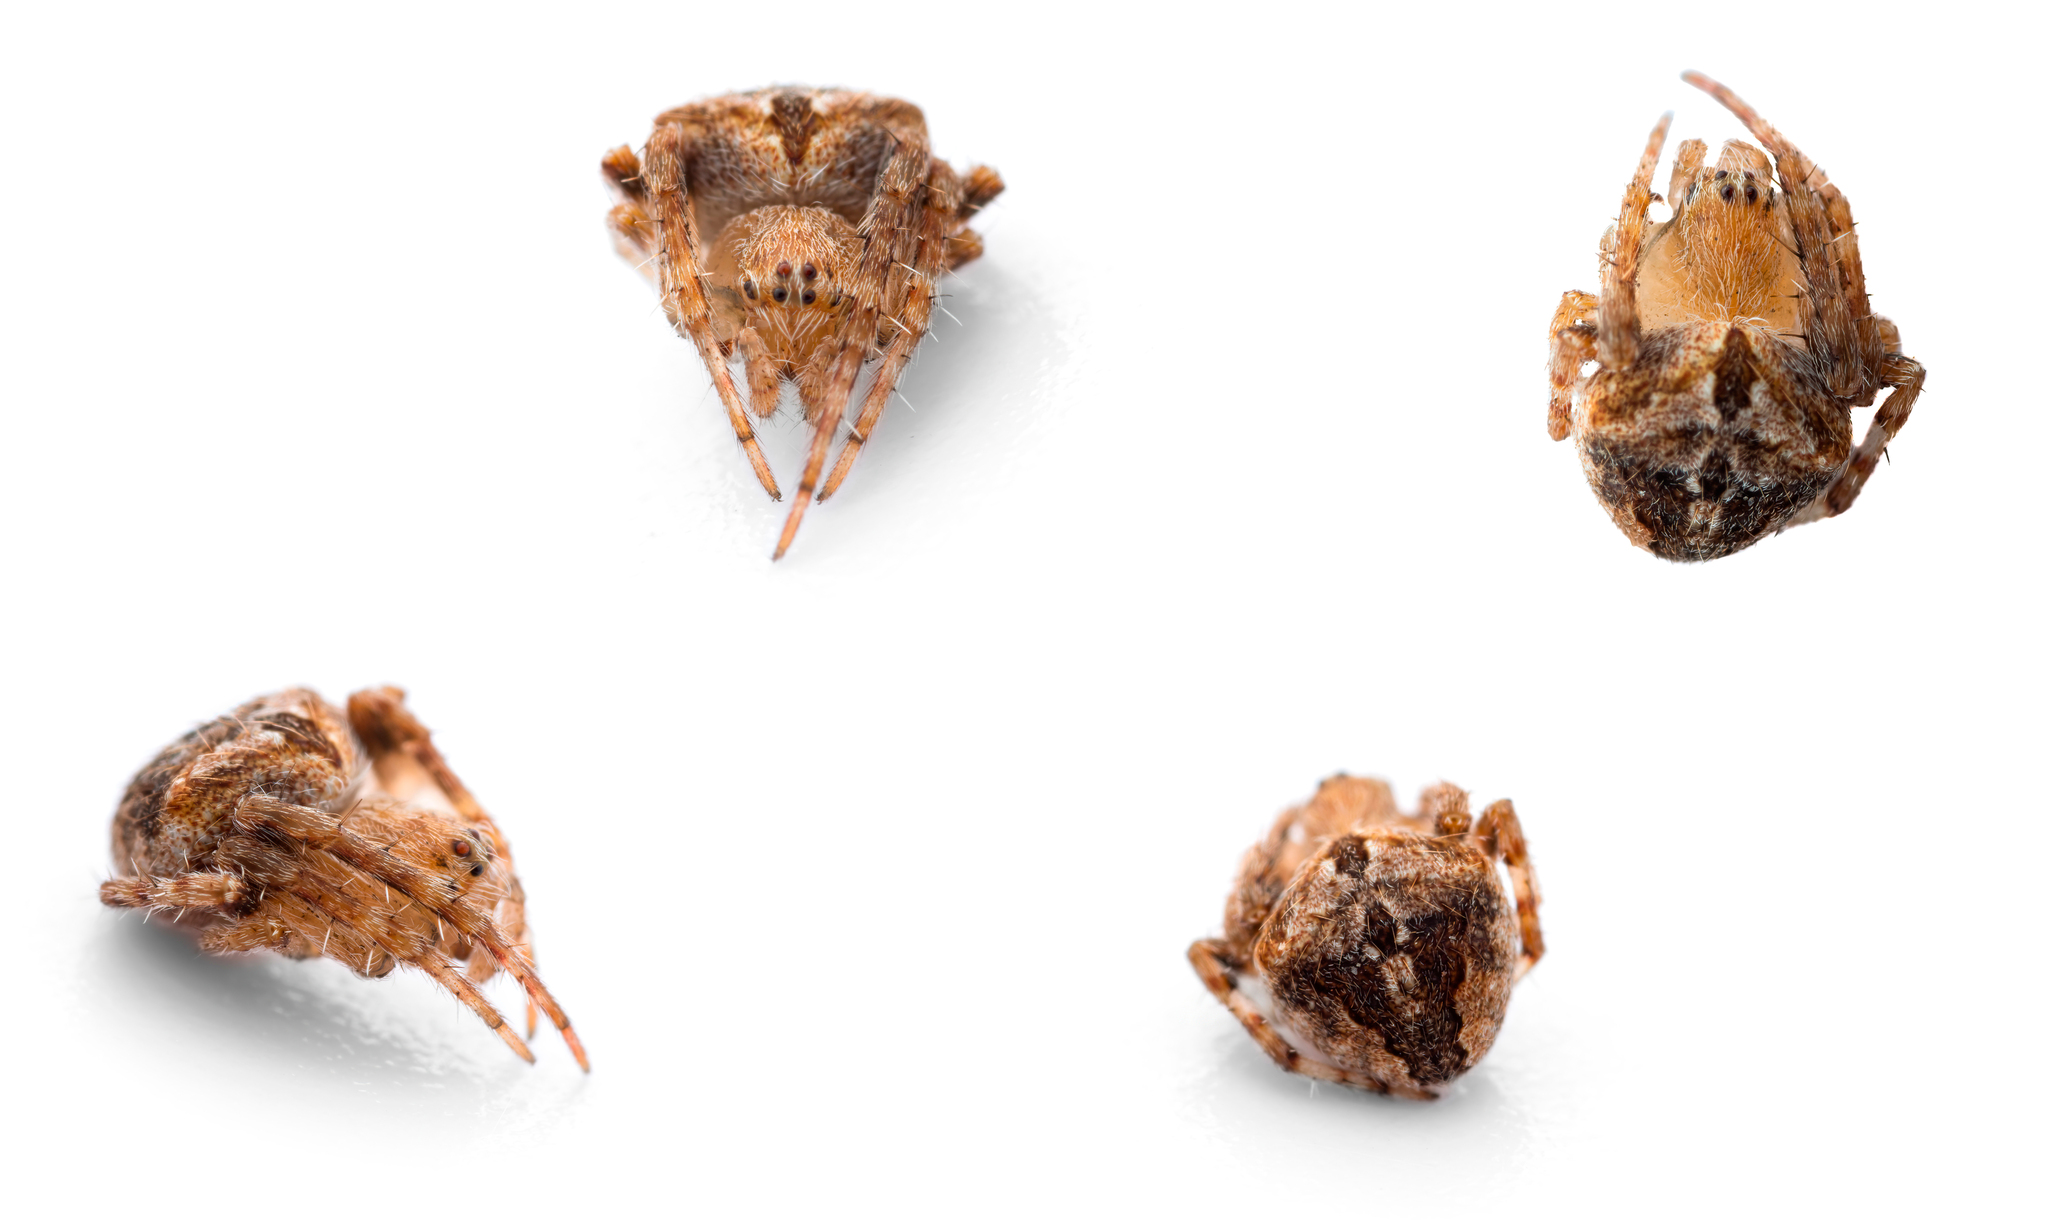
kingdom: Animalia
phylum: Arthropoda
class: Arachnida
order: Araneae
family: Araneidae
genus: Neoscona
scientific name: Neoscona subfusca
